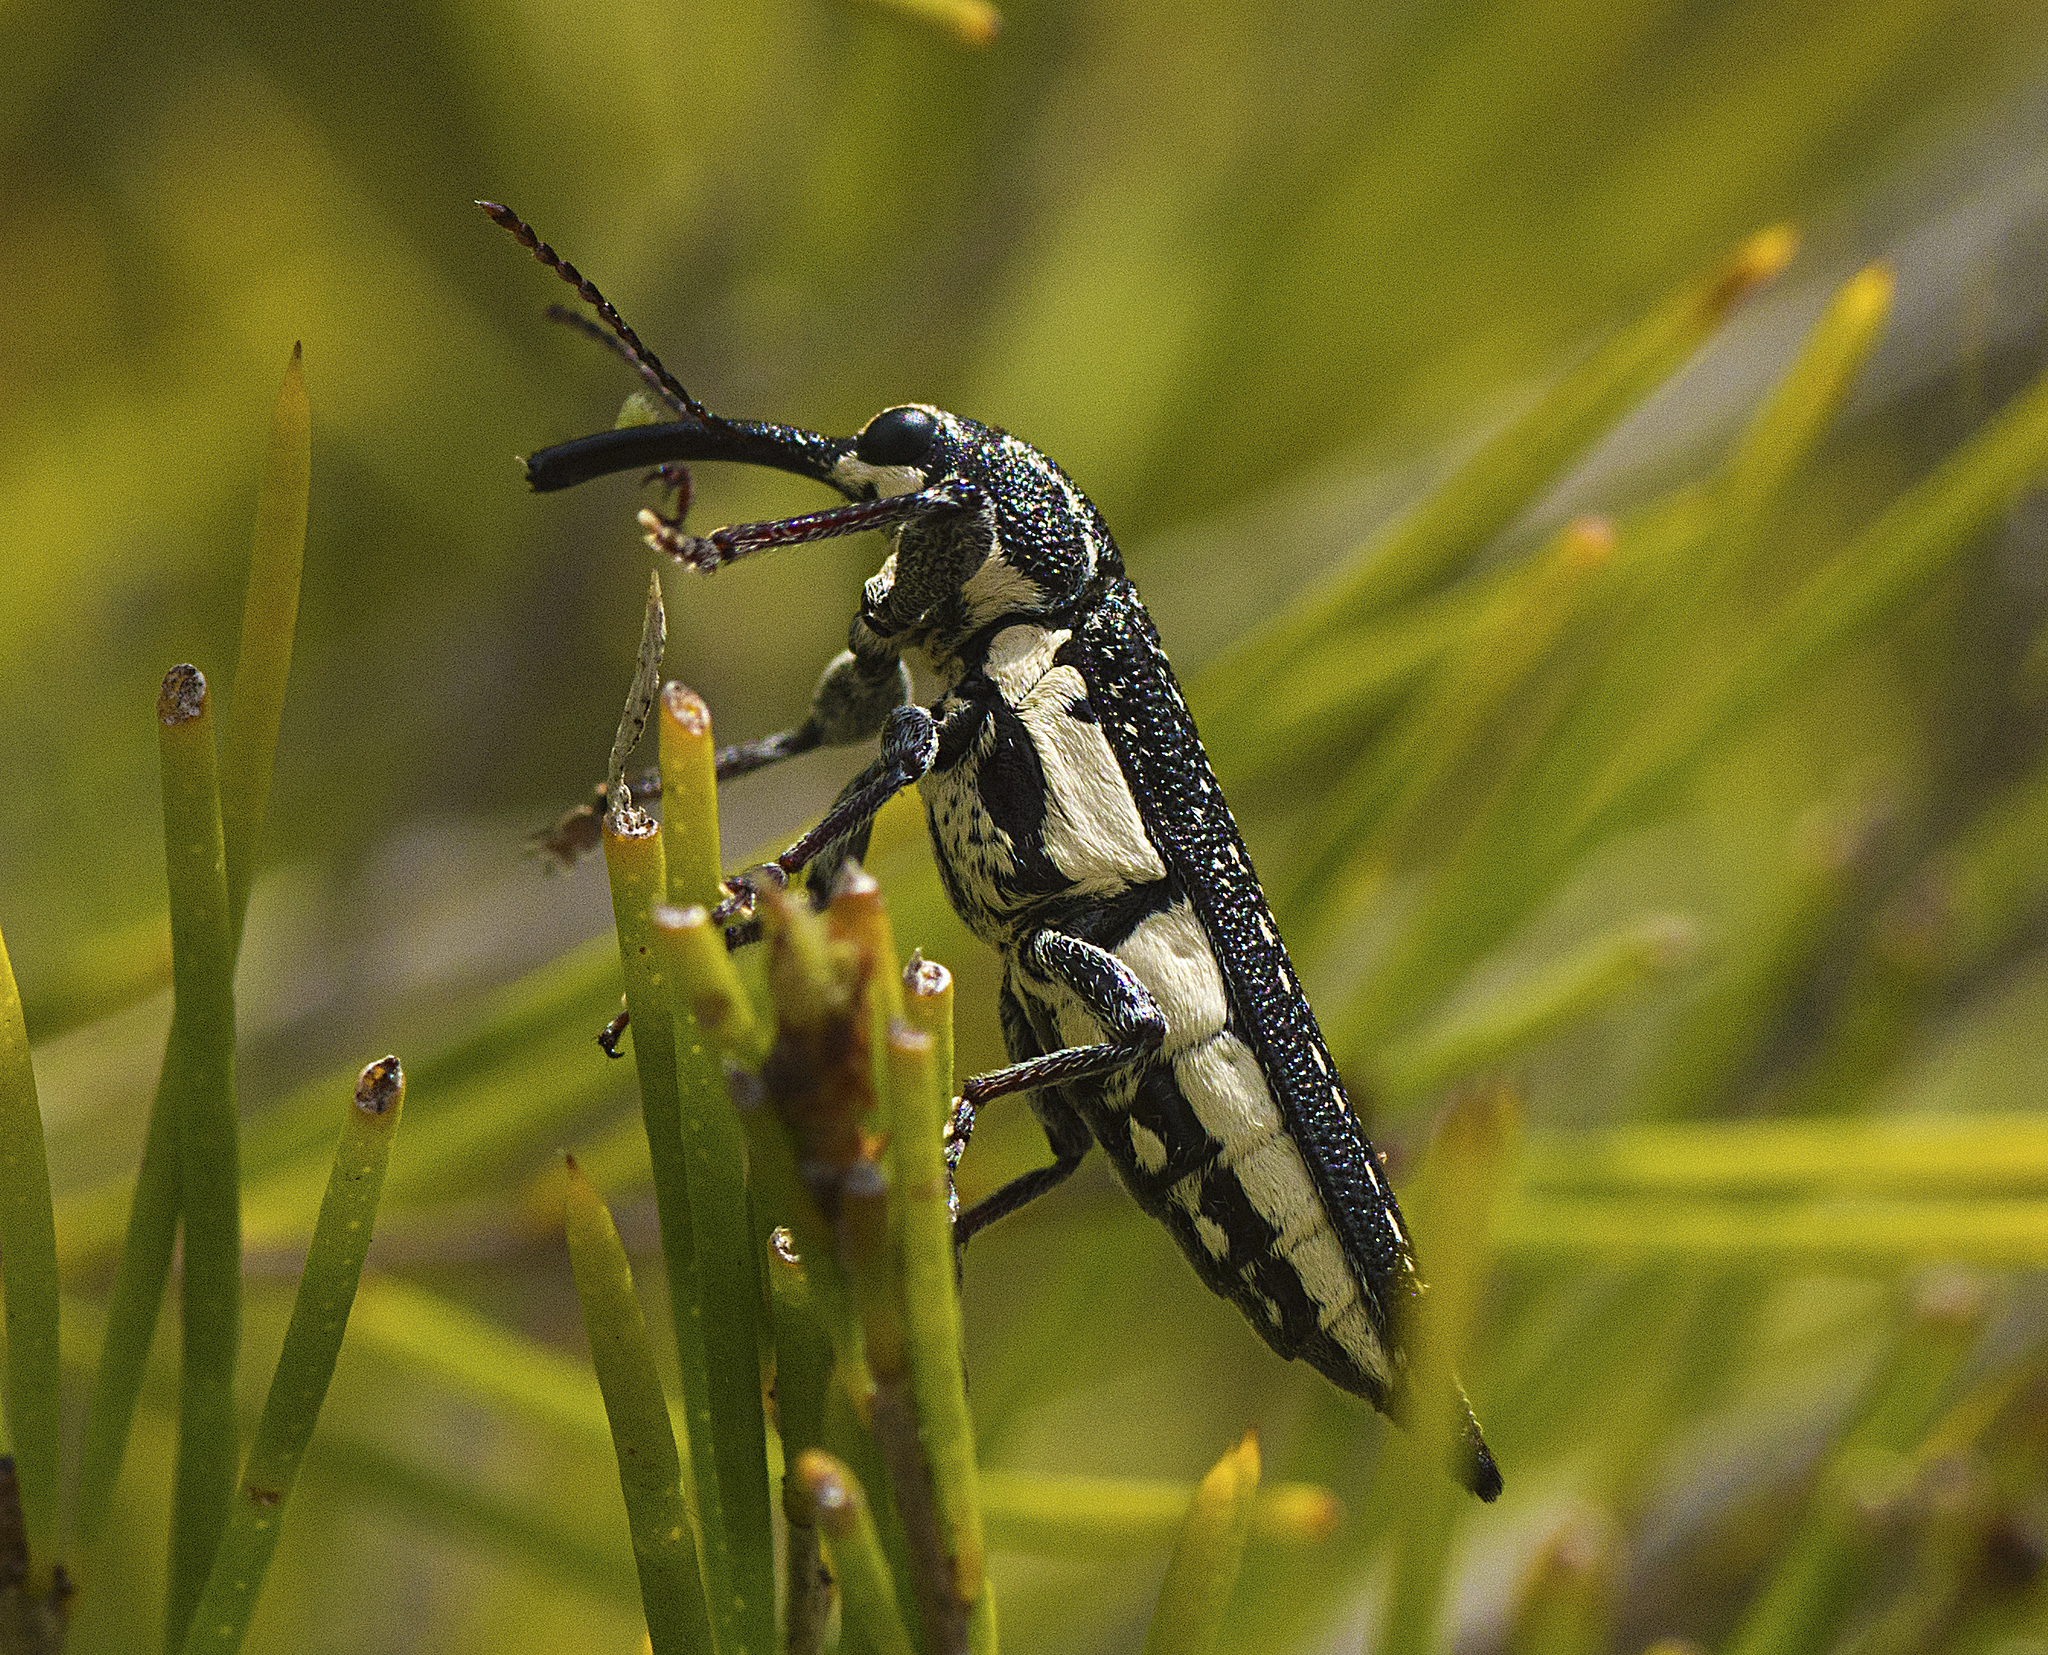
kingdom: Animalia
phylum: Arthropoda
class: Insecta
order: Coleoptera
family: Belidae
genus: Rhinotia
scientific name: Rhinotia lineata
